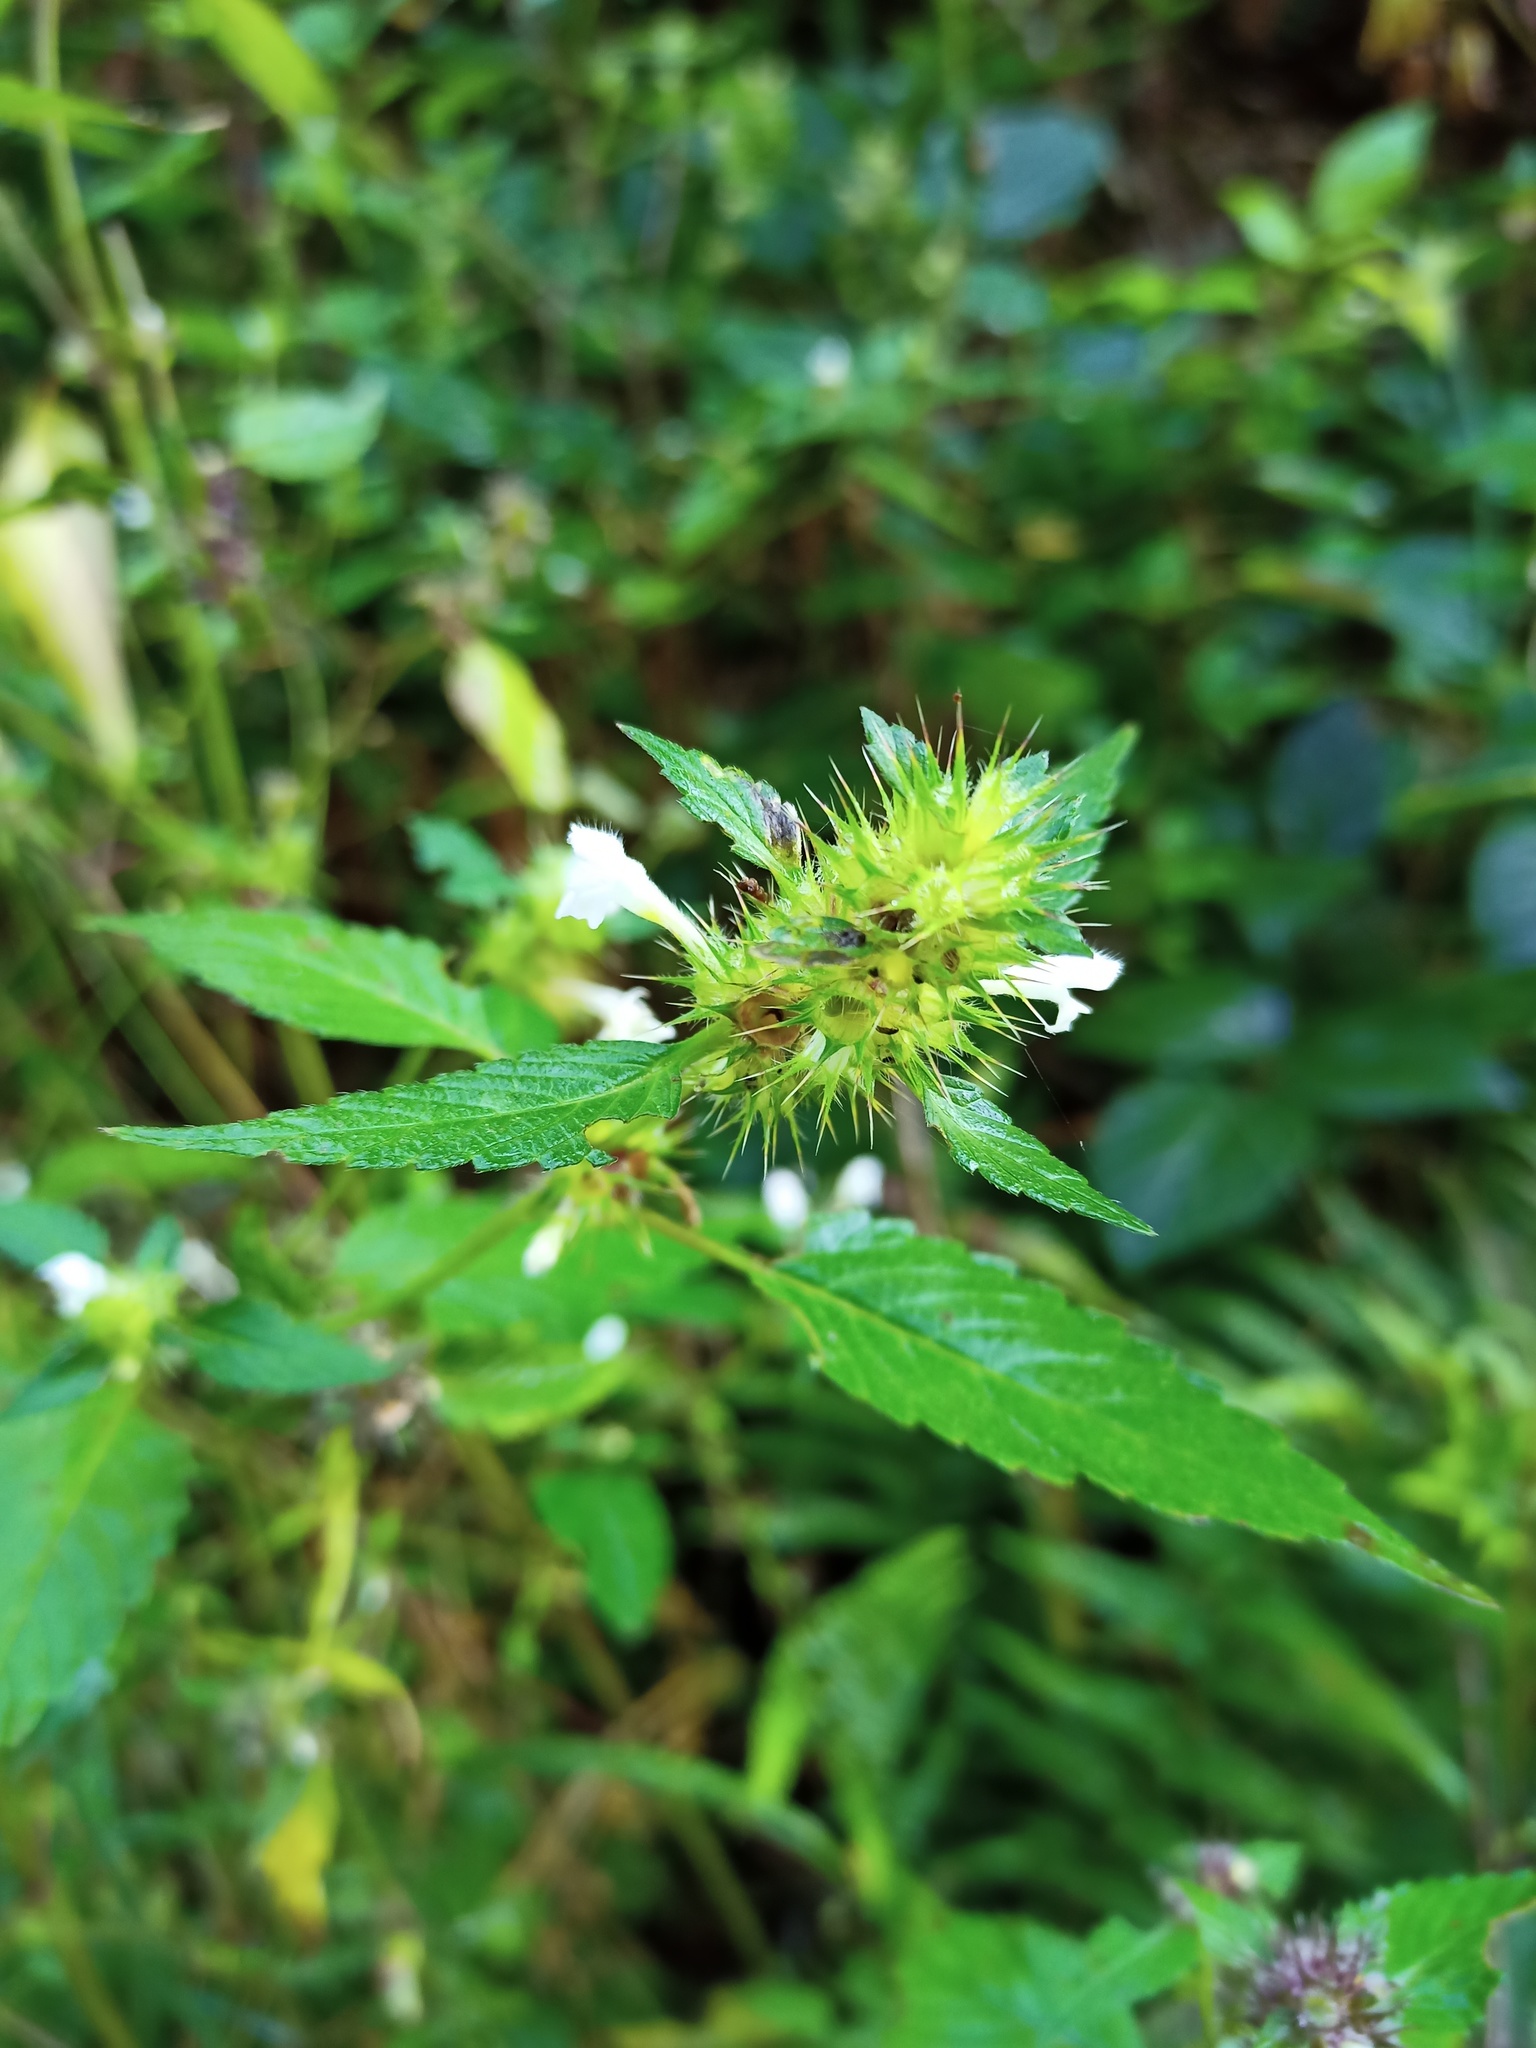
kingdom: Plantae
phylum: Tracheophyta
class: Magnoliopsida
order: Lamiales
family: Lamiaceae
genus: Galeopsis
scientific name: Galeopsis tetrahit
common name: Common hemp-nettle
